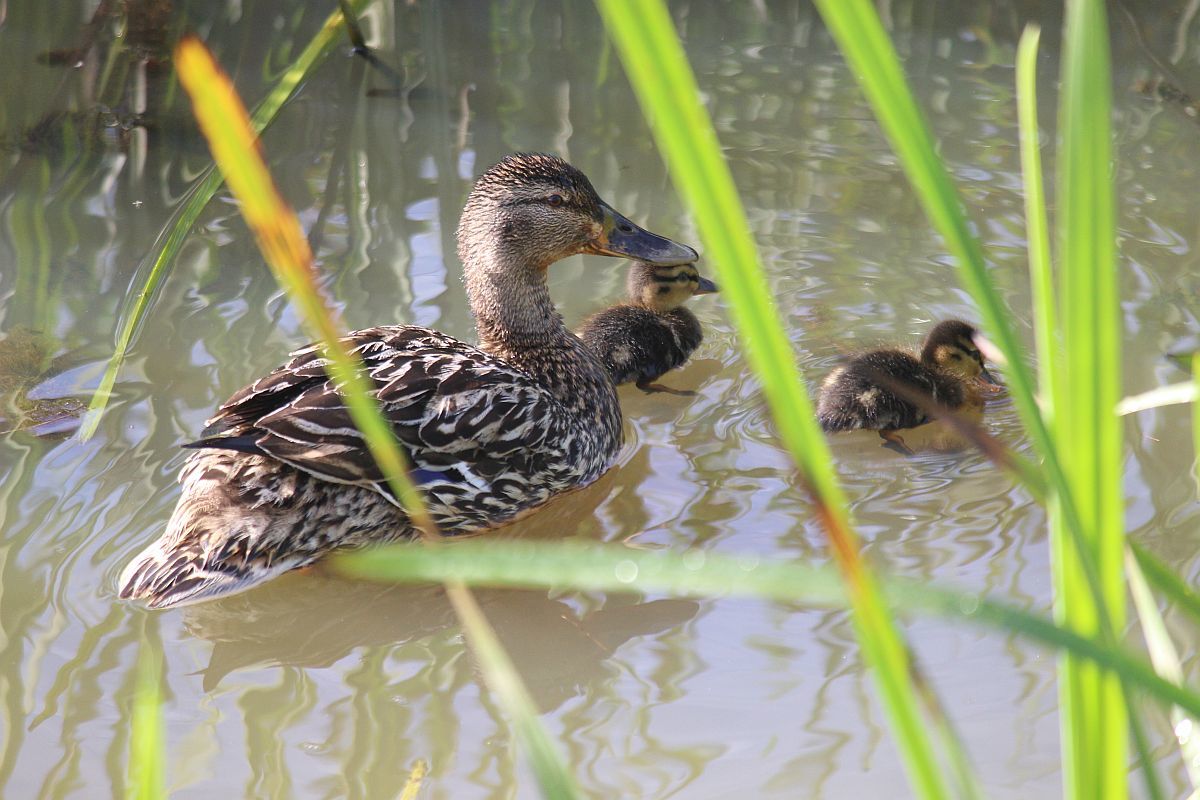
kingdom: Animalia
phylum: Chordata
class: Aves
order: Anseriformes
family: Anatidae
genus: Anas
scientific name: Anas platyrhynchos
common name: Mallard
